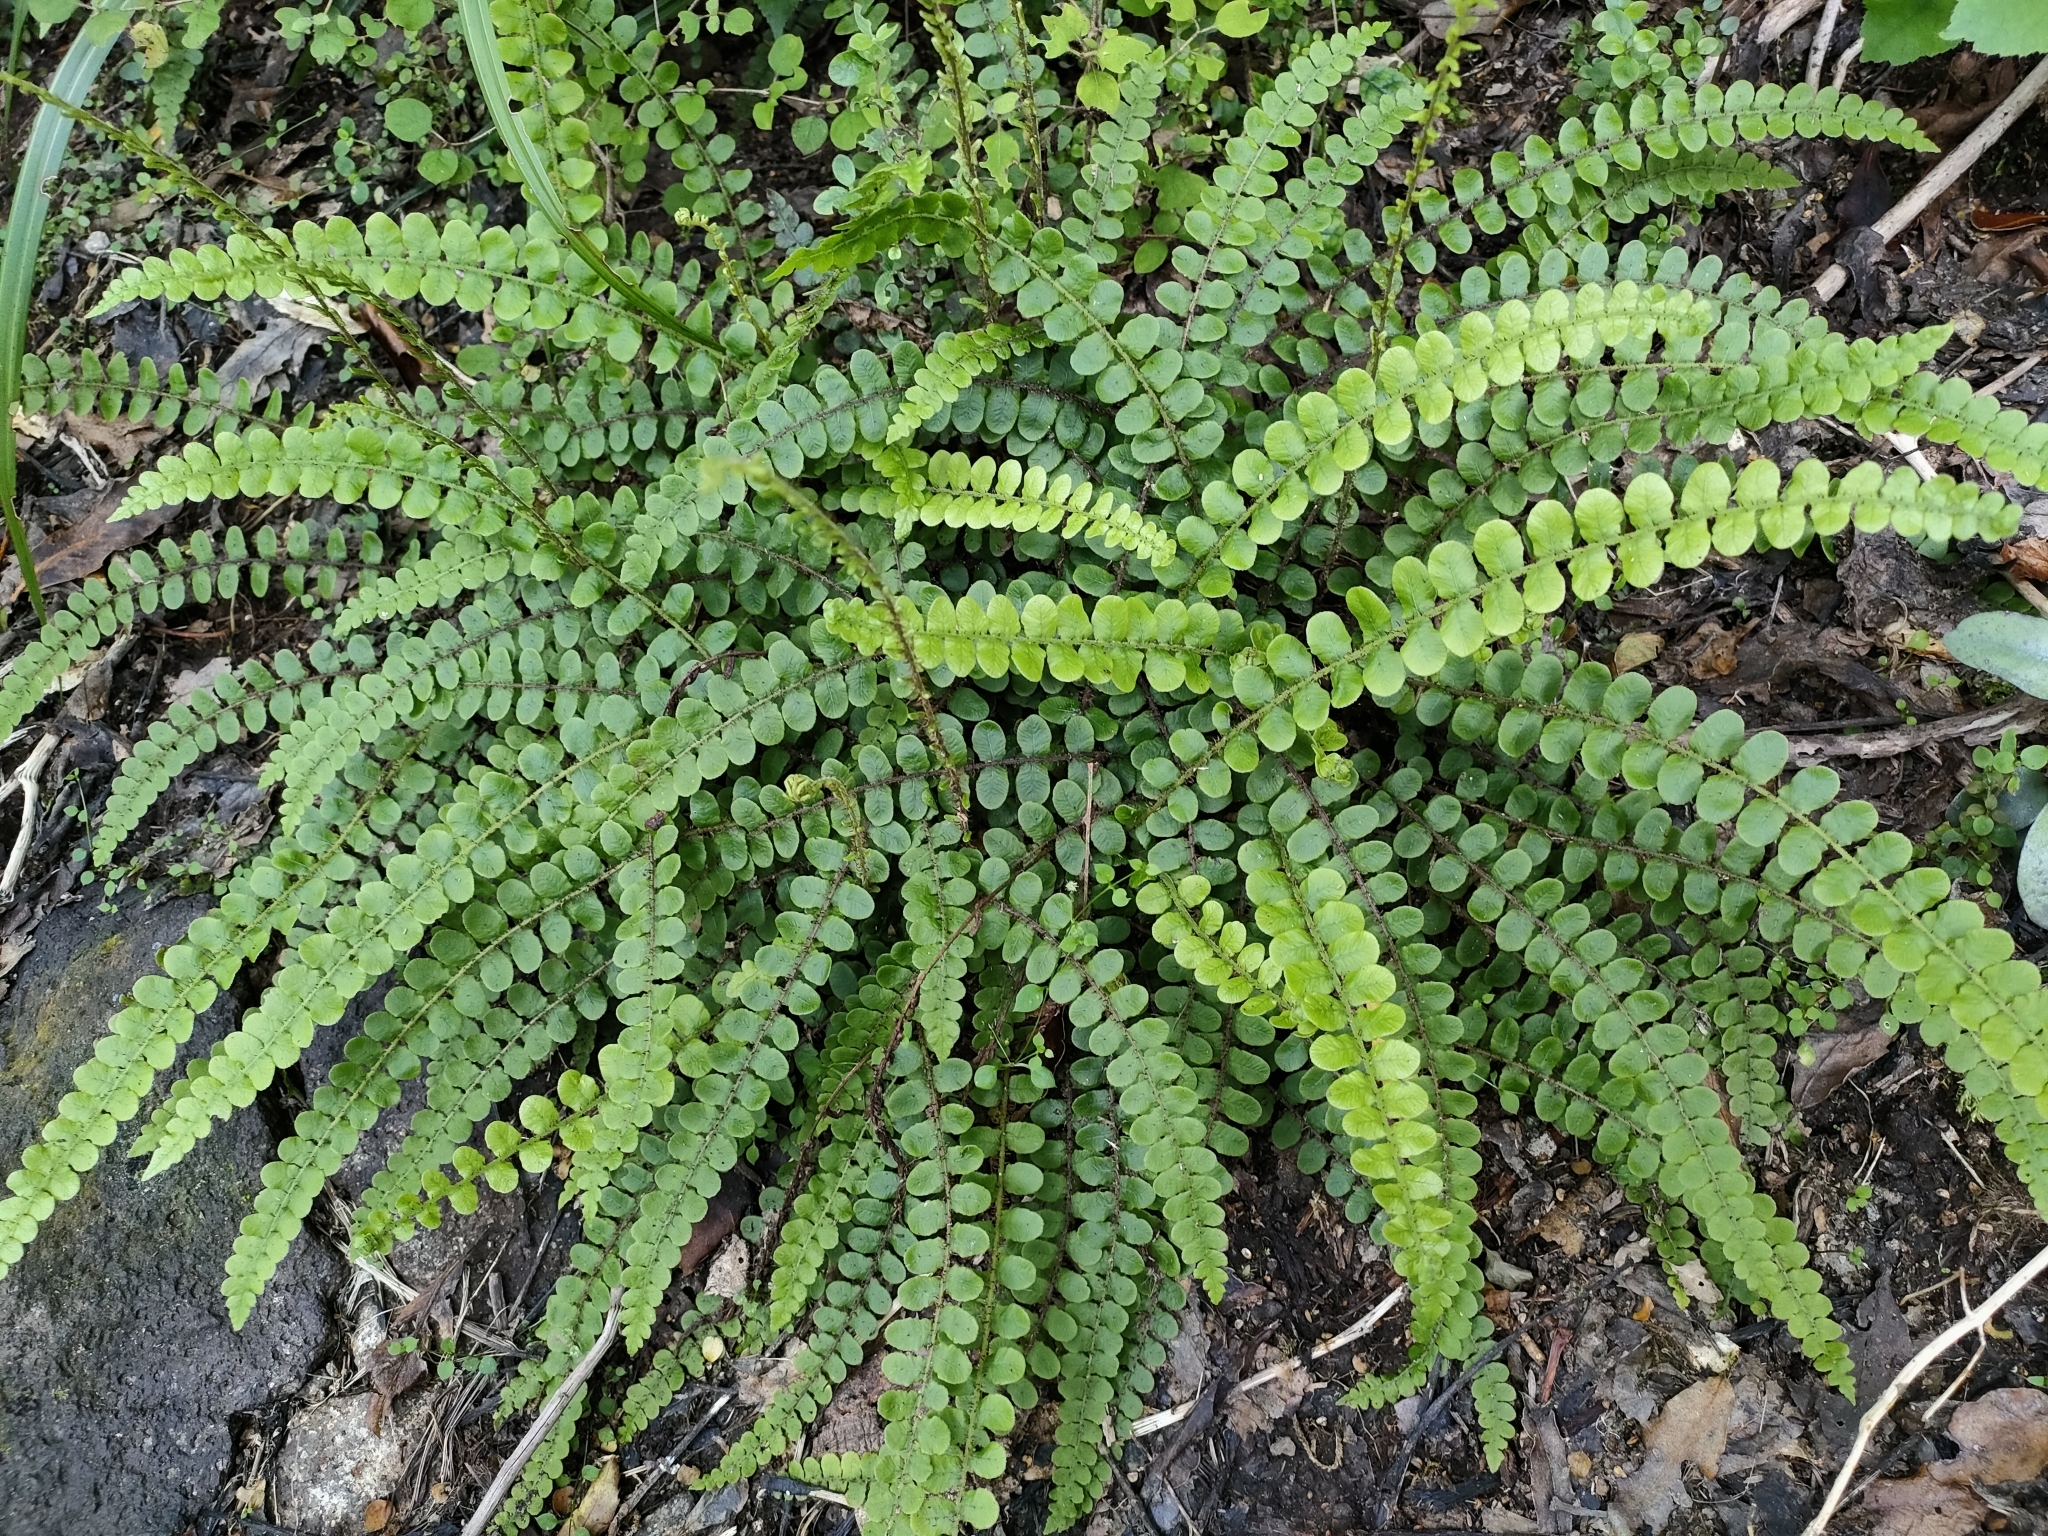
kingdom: Plantae
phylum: Tracheophyta
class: Polypodiopsida
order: Polypodiales
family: Blechnaceae
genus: Cranfillia
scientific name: Cranfillia fluviatilis
